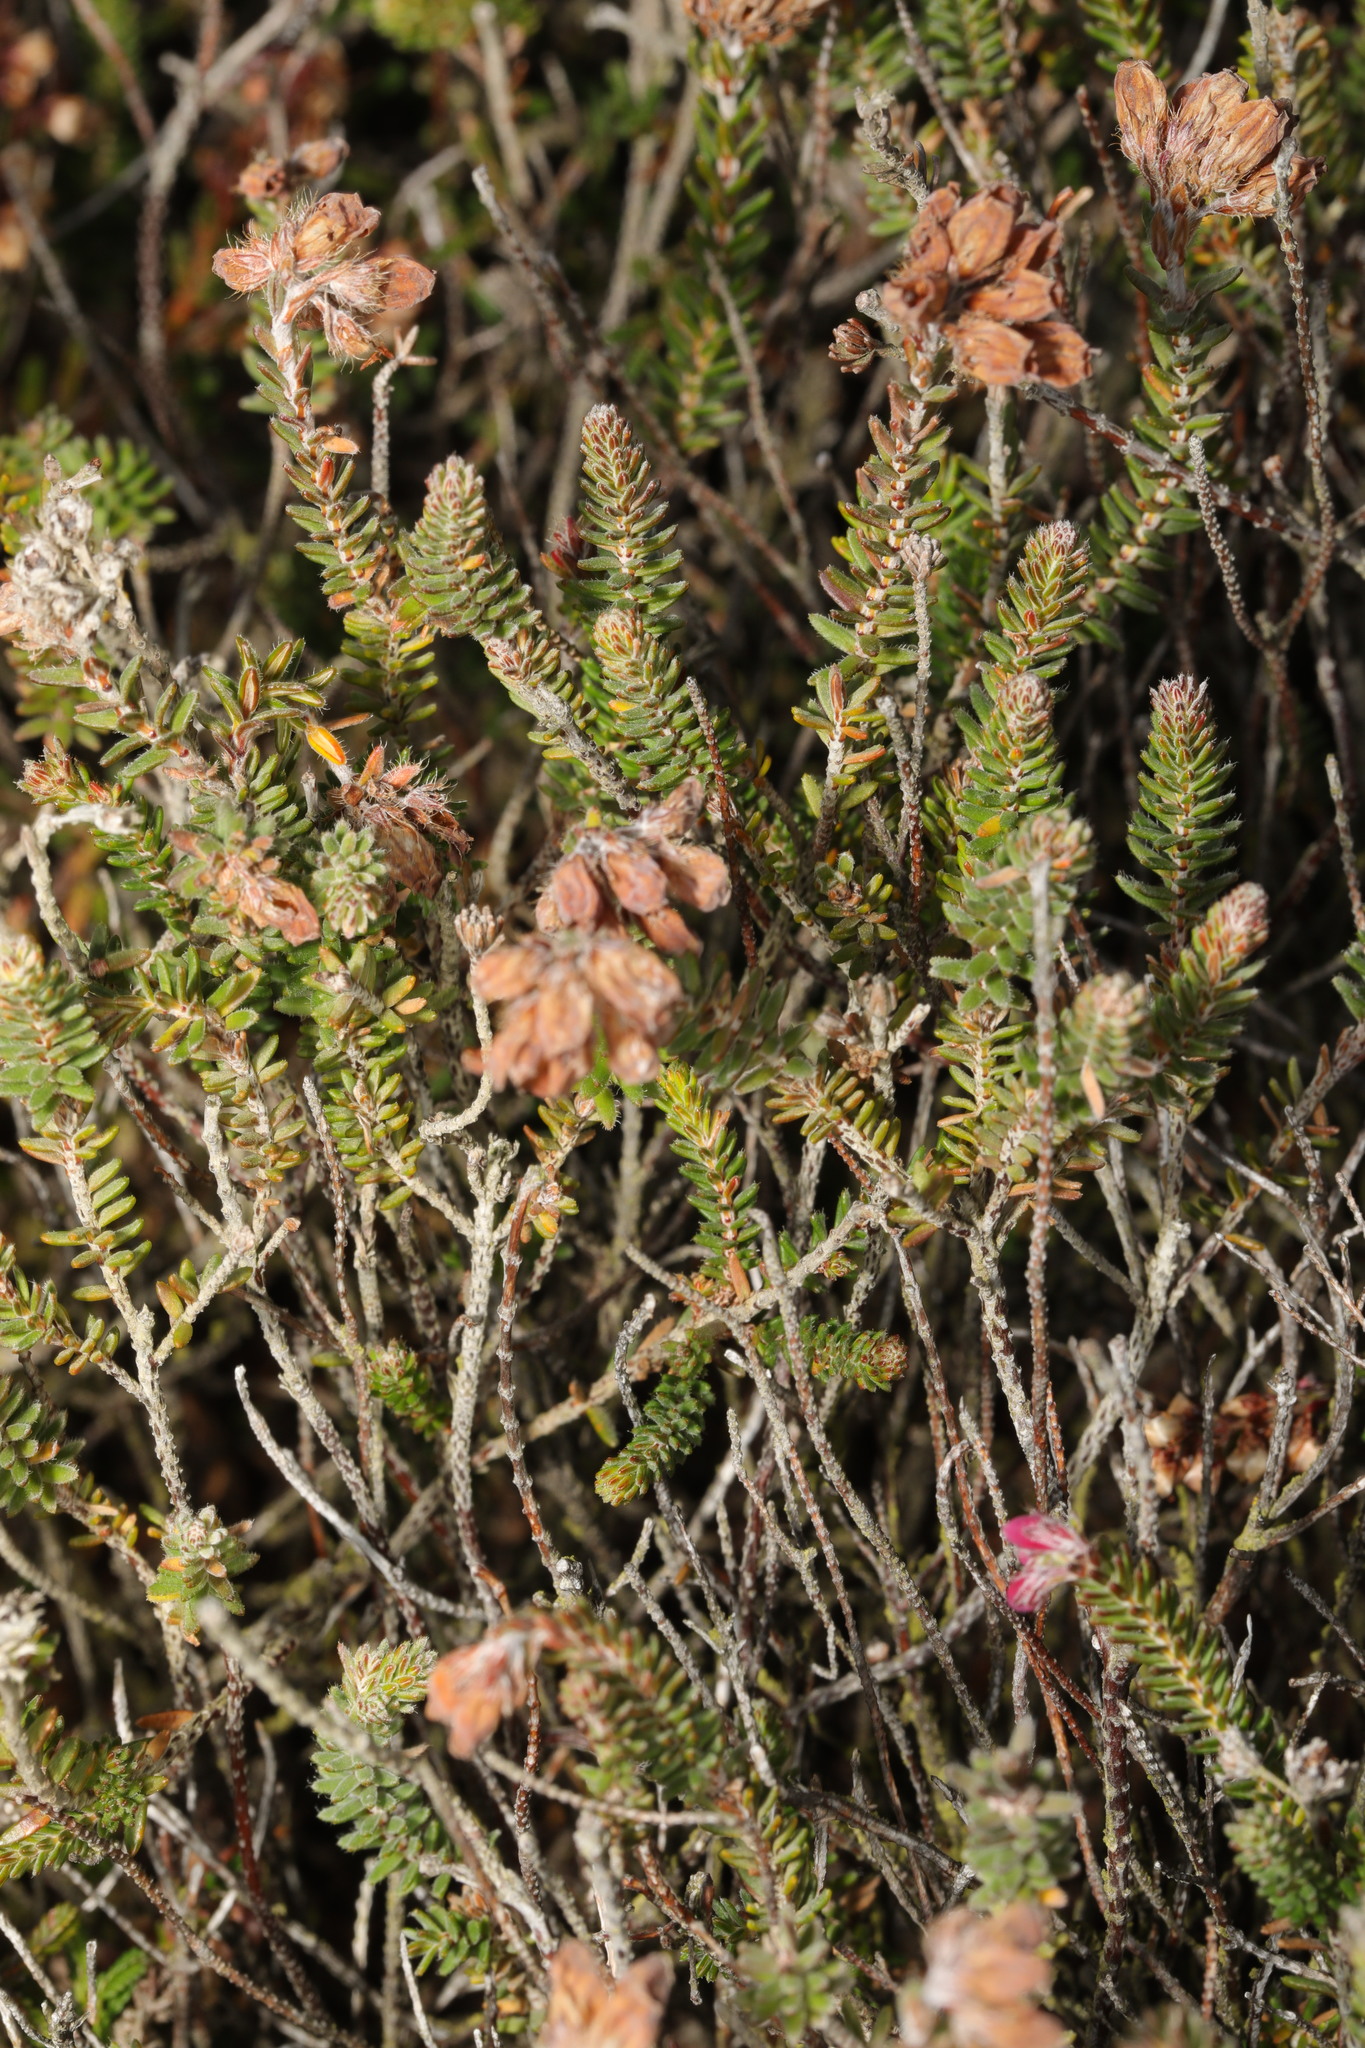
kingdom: Plantae
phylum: Tracheophyta
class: Magnoliopsida
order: Ericales
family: Ericaceae
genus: Erica
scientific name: Erica tetralix
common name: Cross-leaved heath
